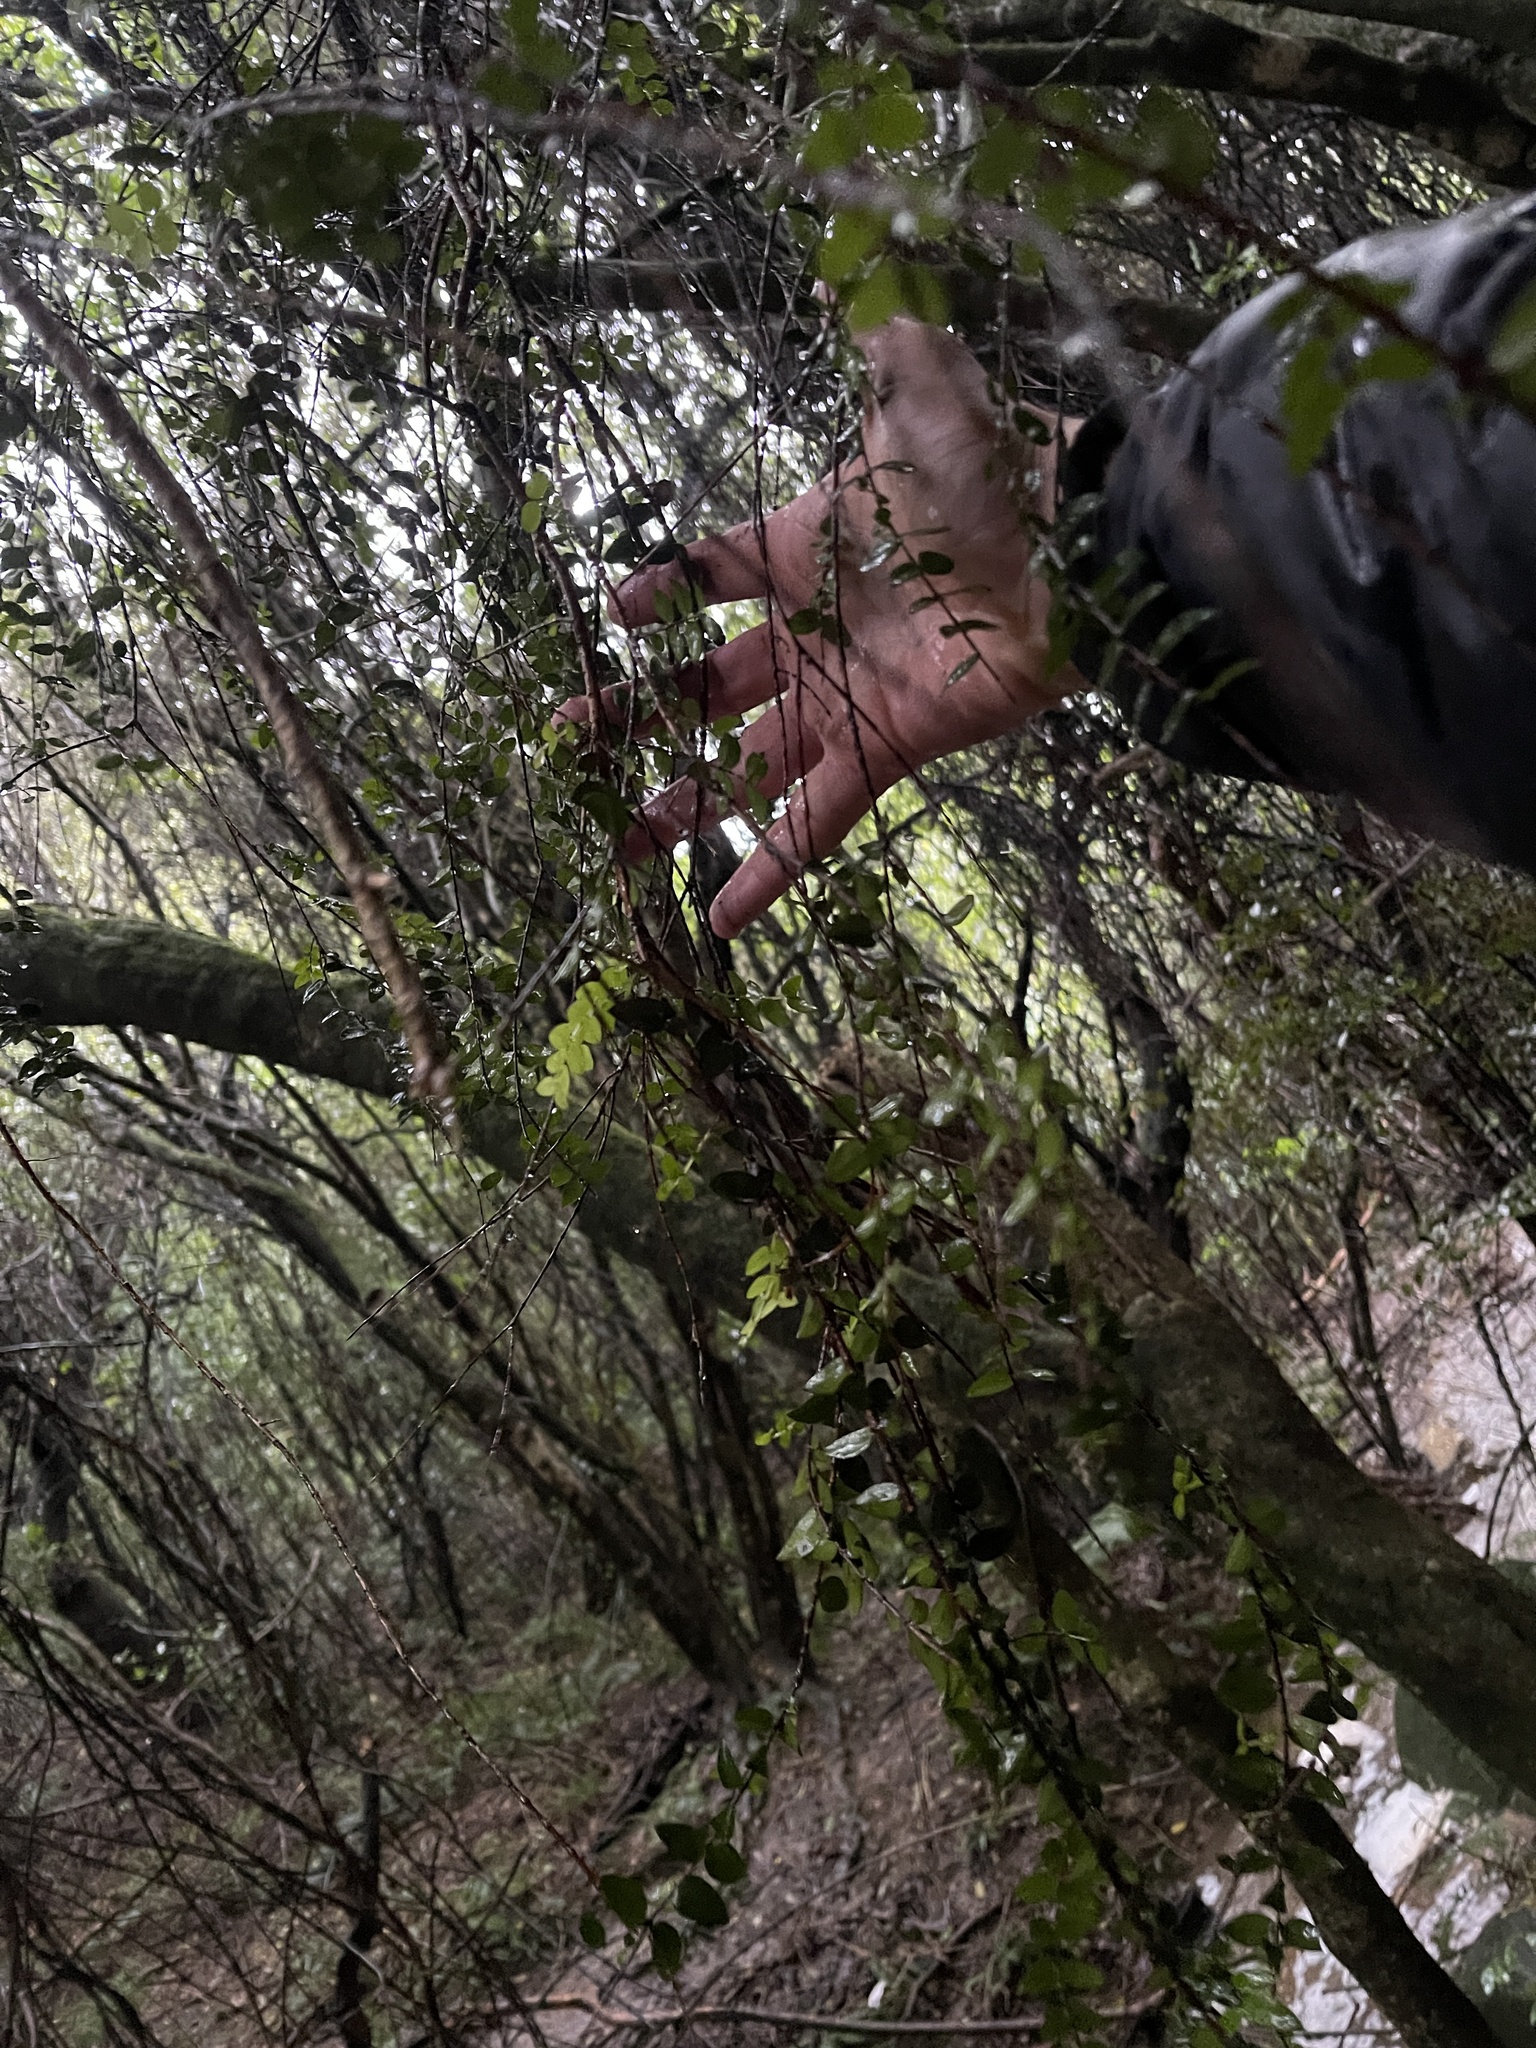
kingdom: Plantae
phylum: Tracheophyta
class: Magnoliopsida
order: Myrtales
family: Myrtaceae
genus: Metrosideros
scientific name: Metrosideros diffusa
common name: Small ratavine
